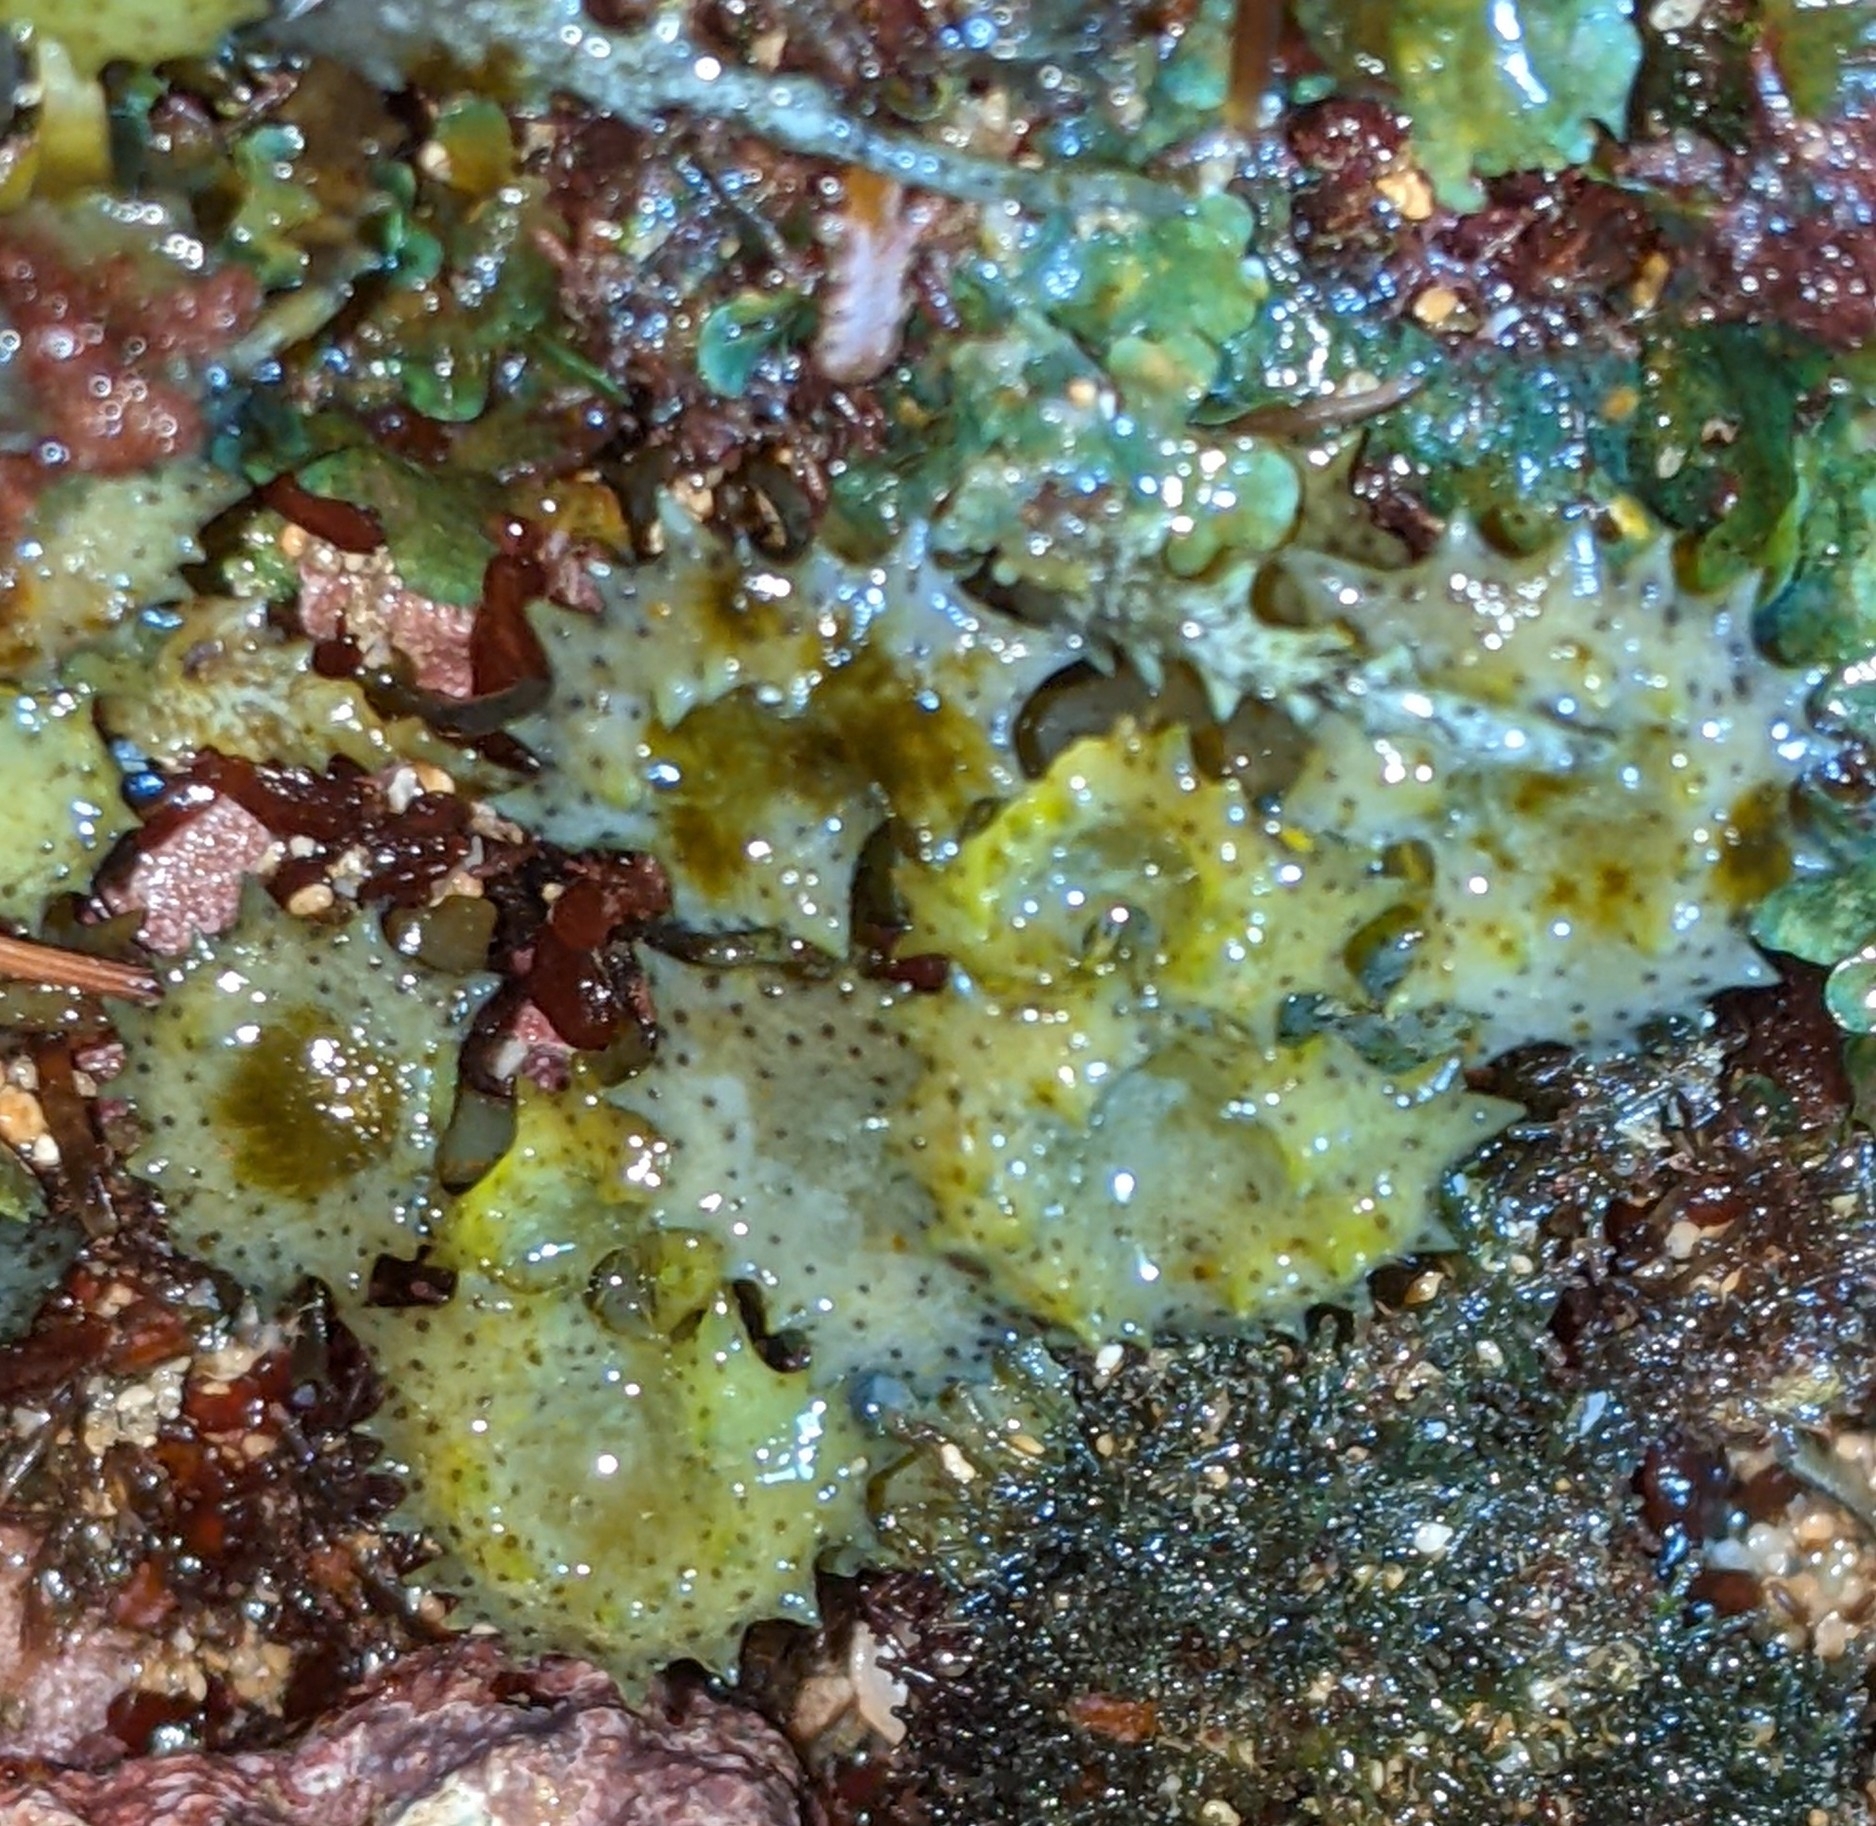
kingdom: Chromista
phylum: Ochrophyta
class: Phaeophyceae
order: Fucales
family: Sargassaceae
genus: Turbinaria
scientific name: Turbinaria ornata
